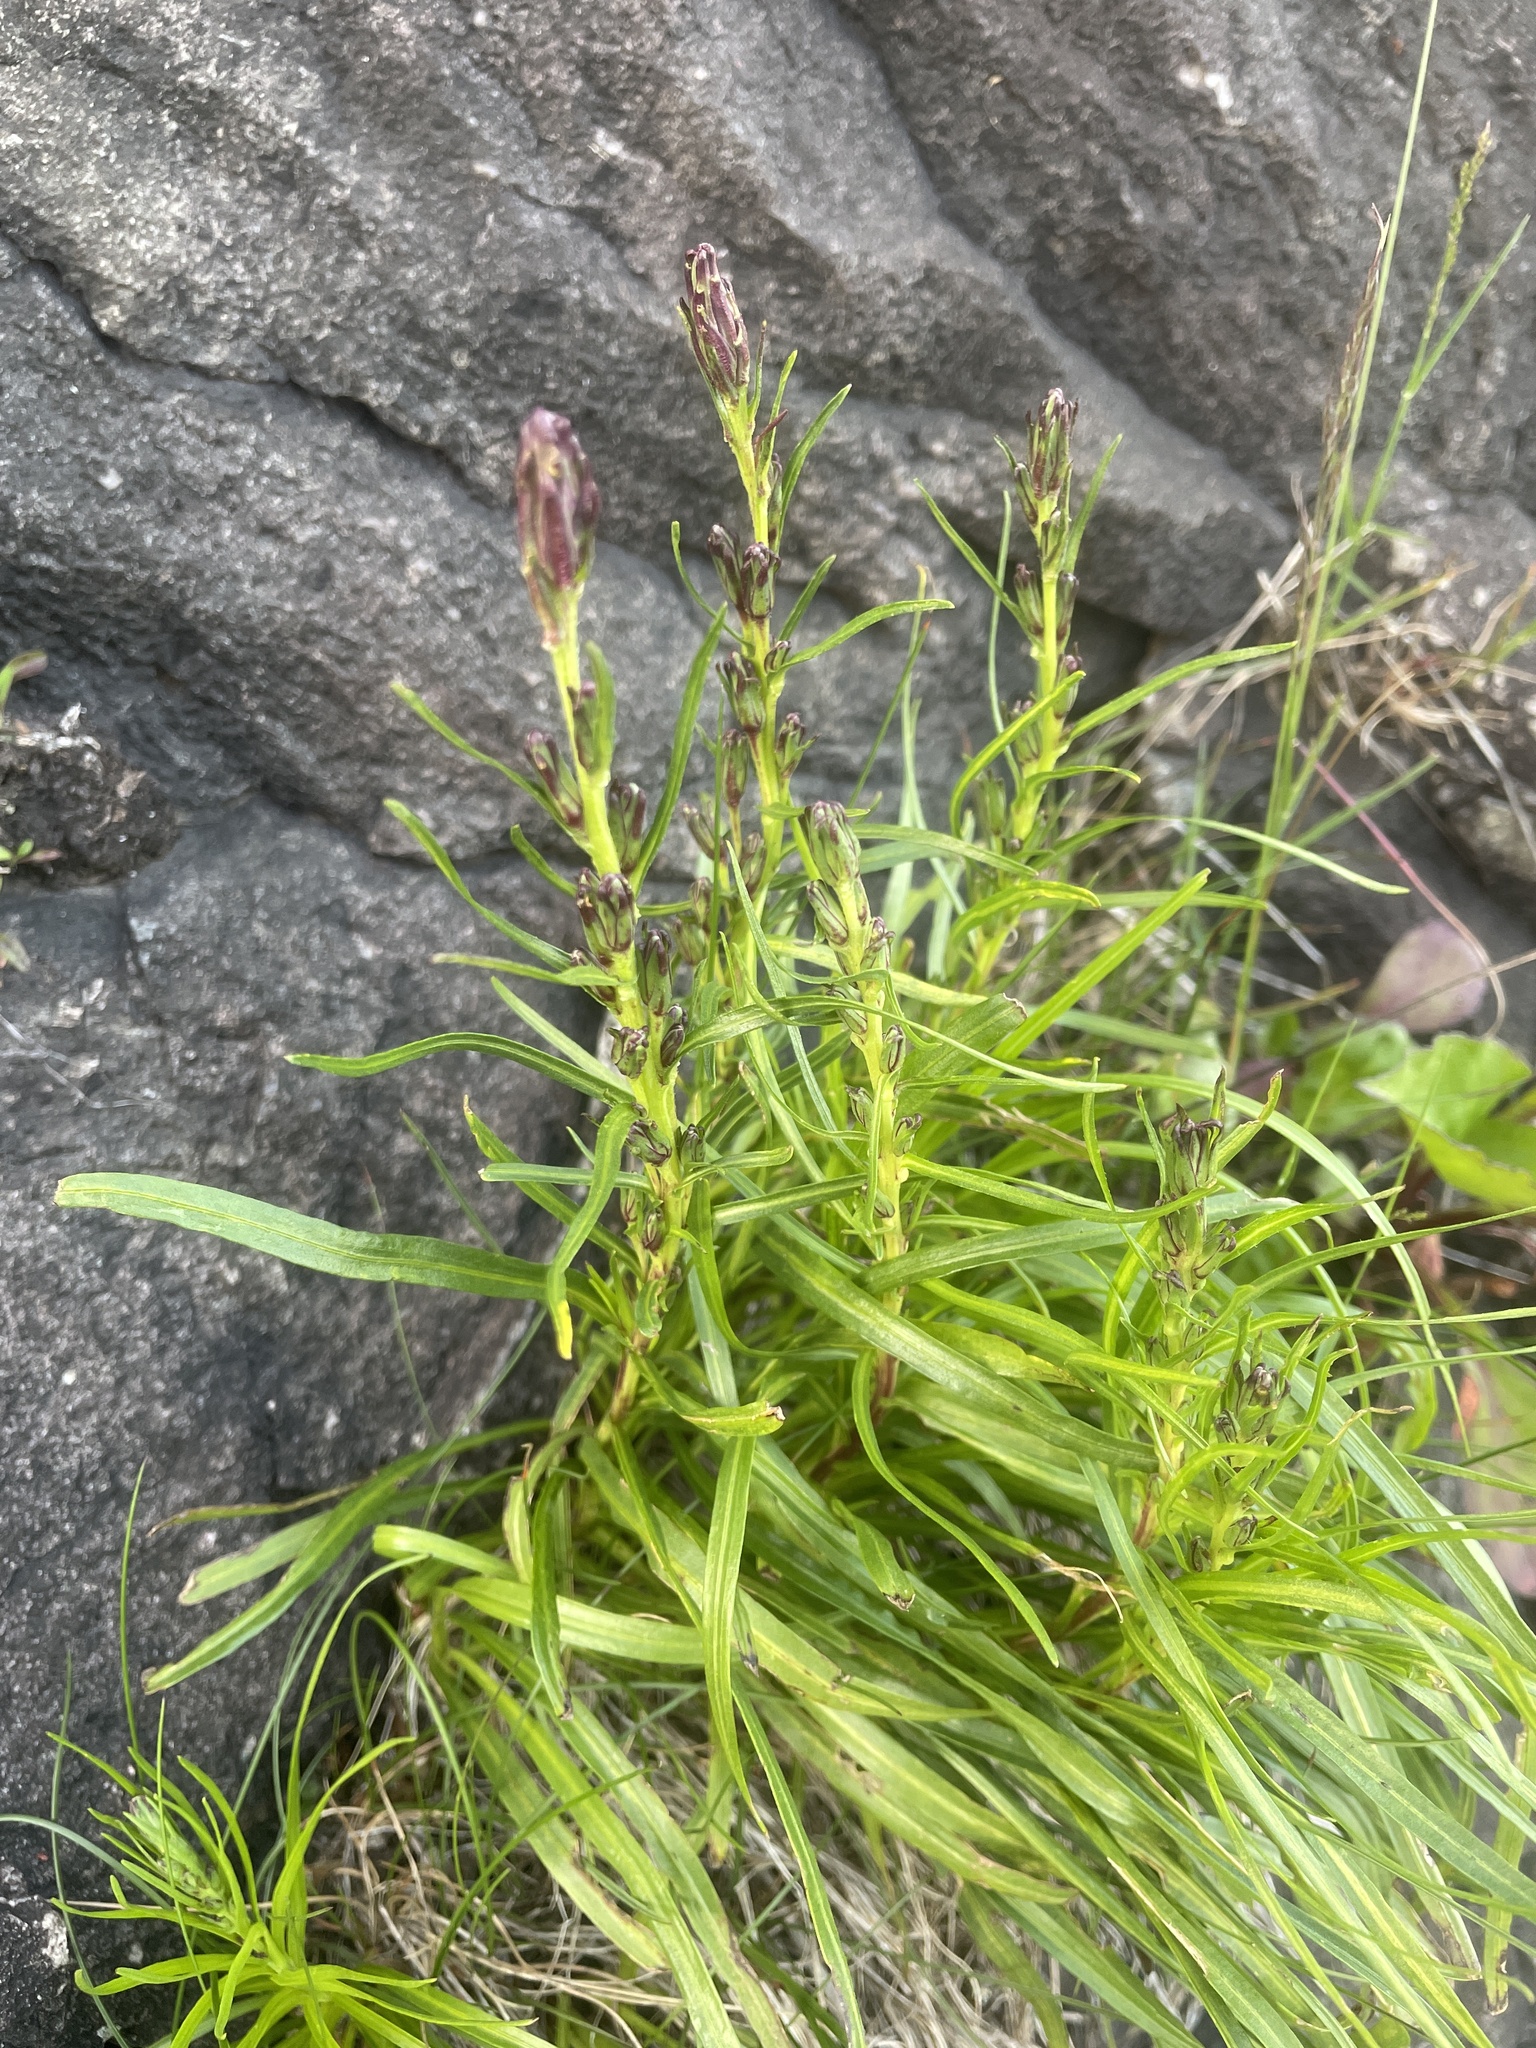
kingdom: Plantae
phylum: Tracheophyta
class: Magnoliopsida
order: Asterales
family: Asteraceae
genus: Liatris
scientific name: Liatris helleri
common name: Heller's blazingstar
